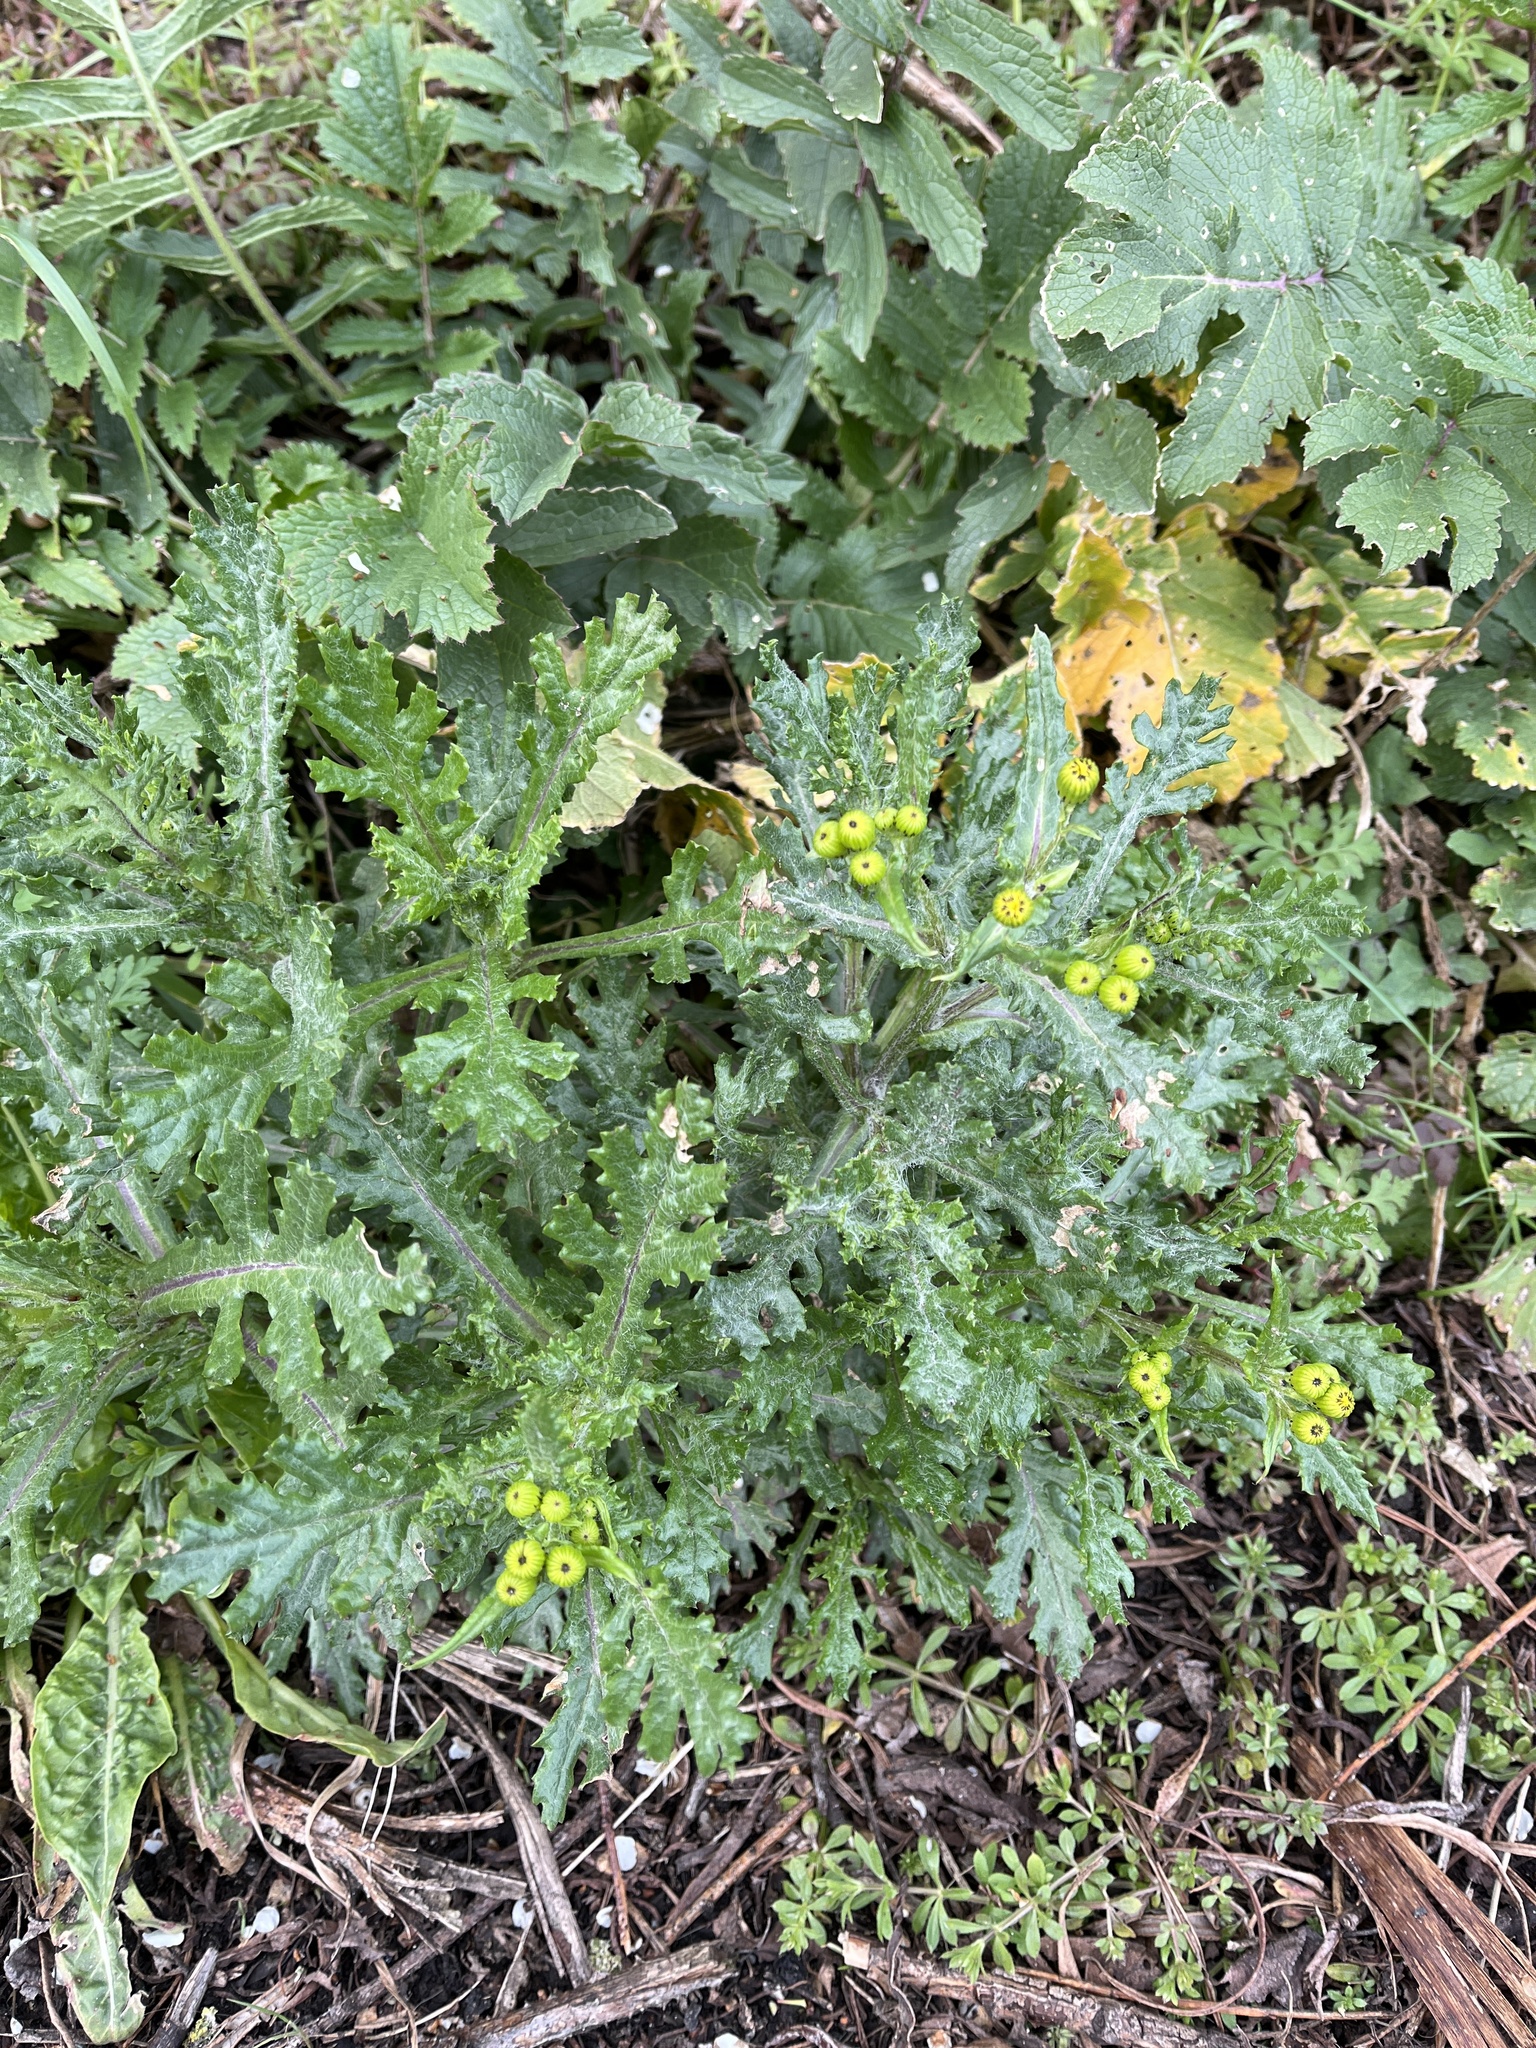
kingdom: Plantae
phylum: Tracheophyta
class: Magnoliopsida
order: Asterales
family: Asteraceae
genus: Senecio
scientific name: Senecio vulgaris
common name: Old-man-in-the-spring
